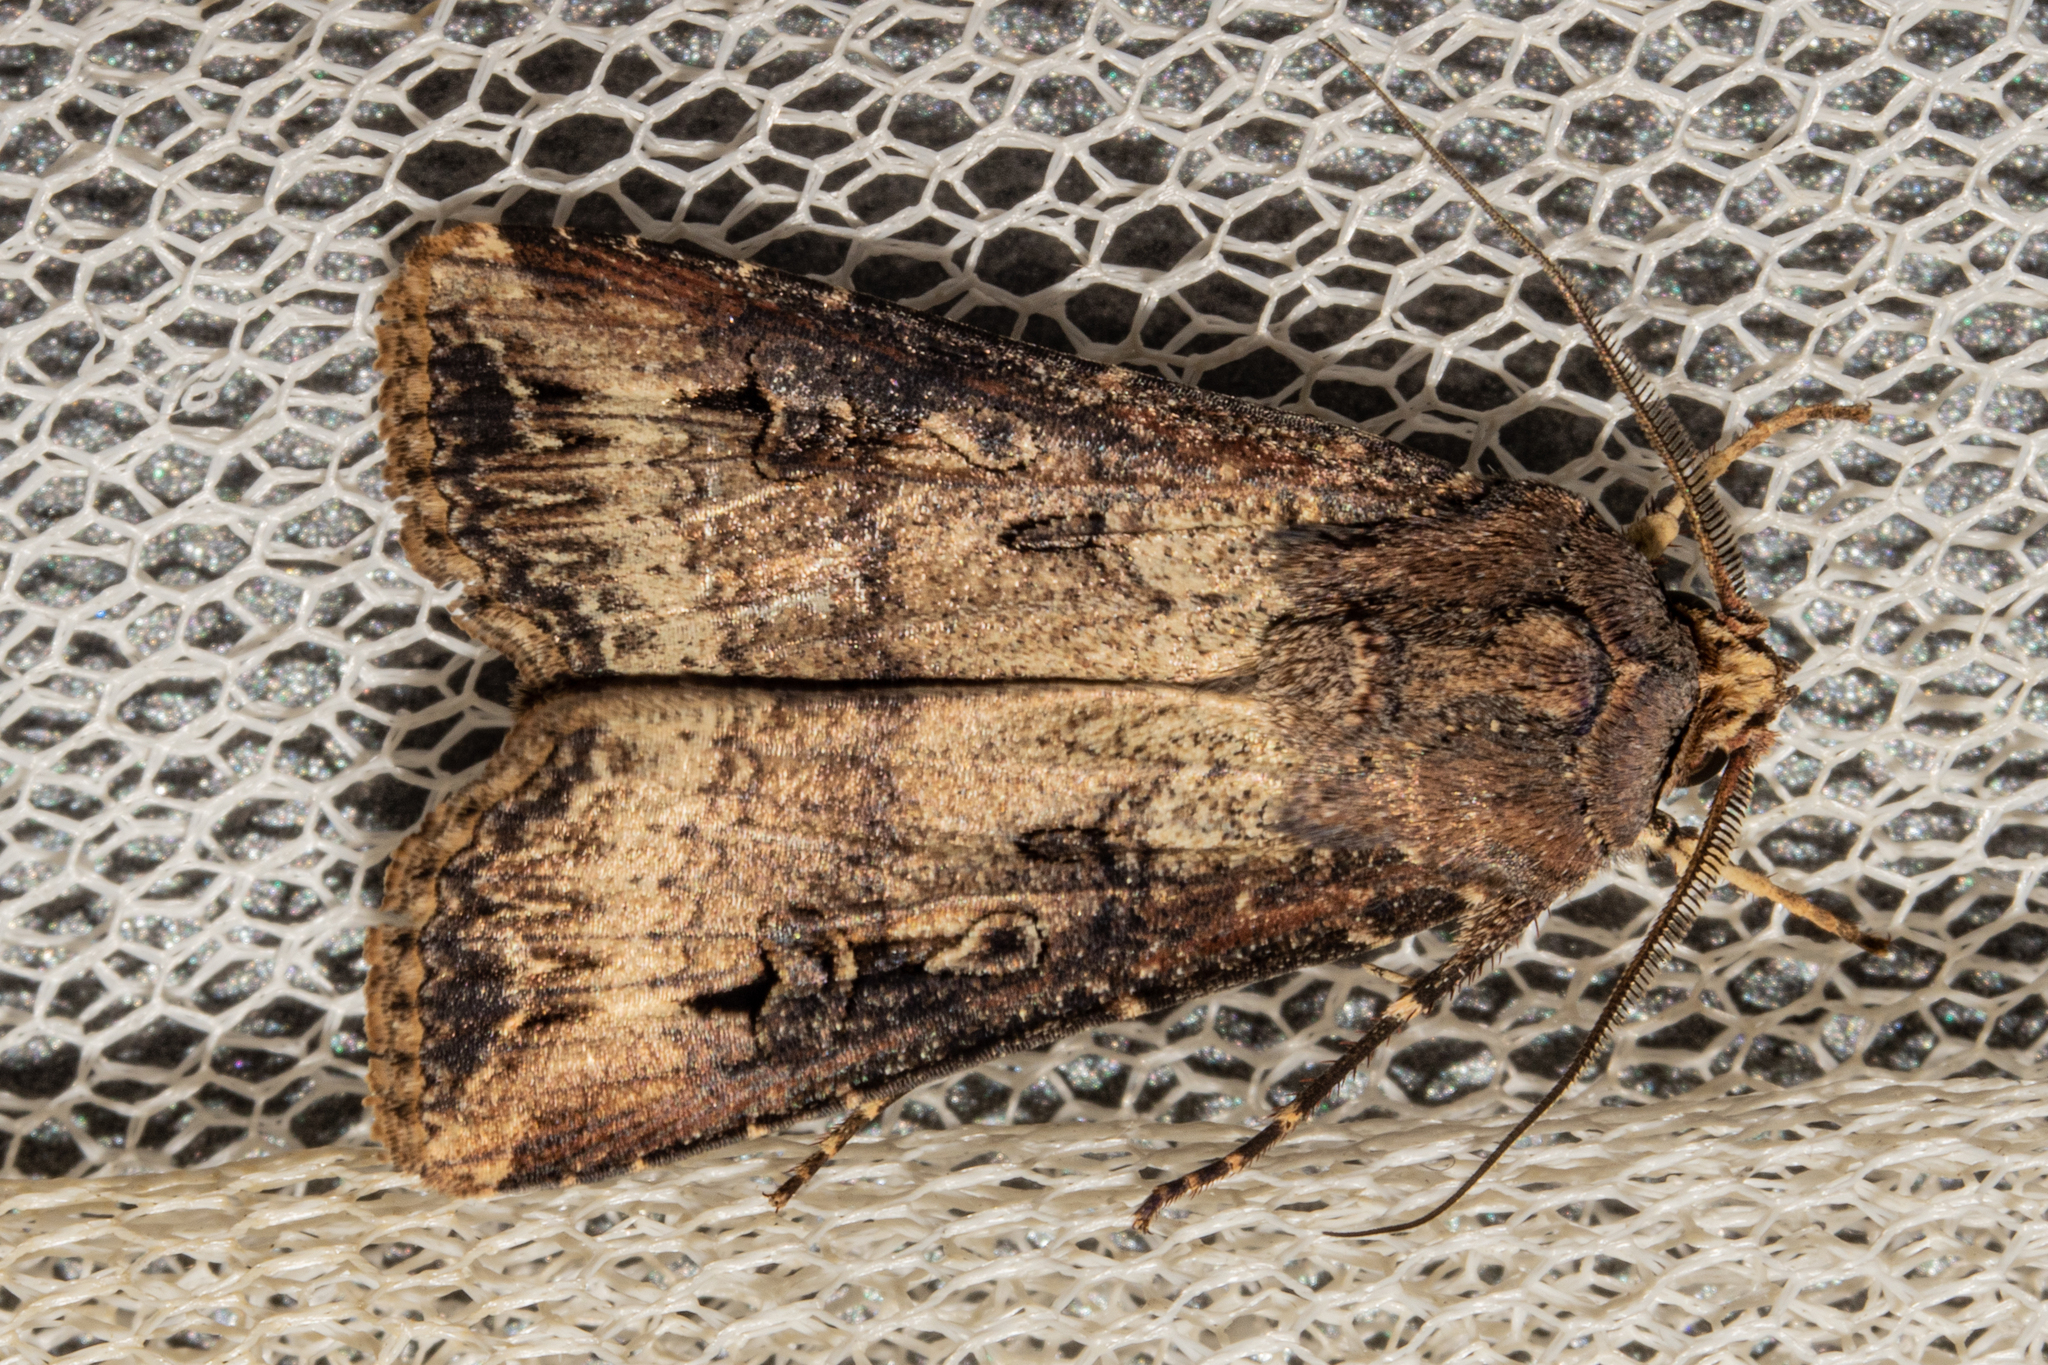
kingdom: Animalia
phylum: Arthropoda
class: Insecta
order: Lepidoptera
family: Noctuidae
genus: Agrotis
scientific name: Agrotis ipsilon
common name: Dark sword-grass
